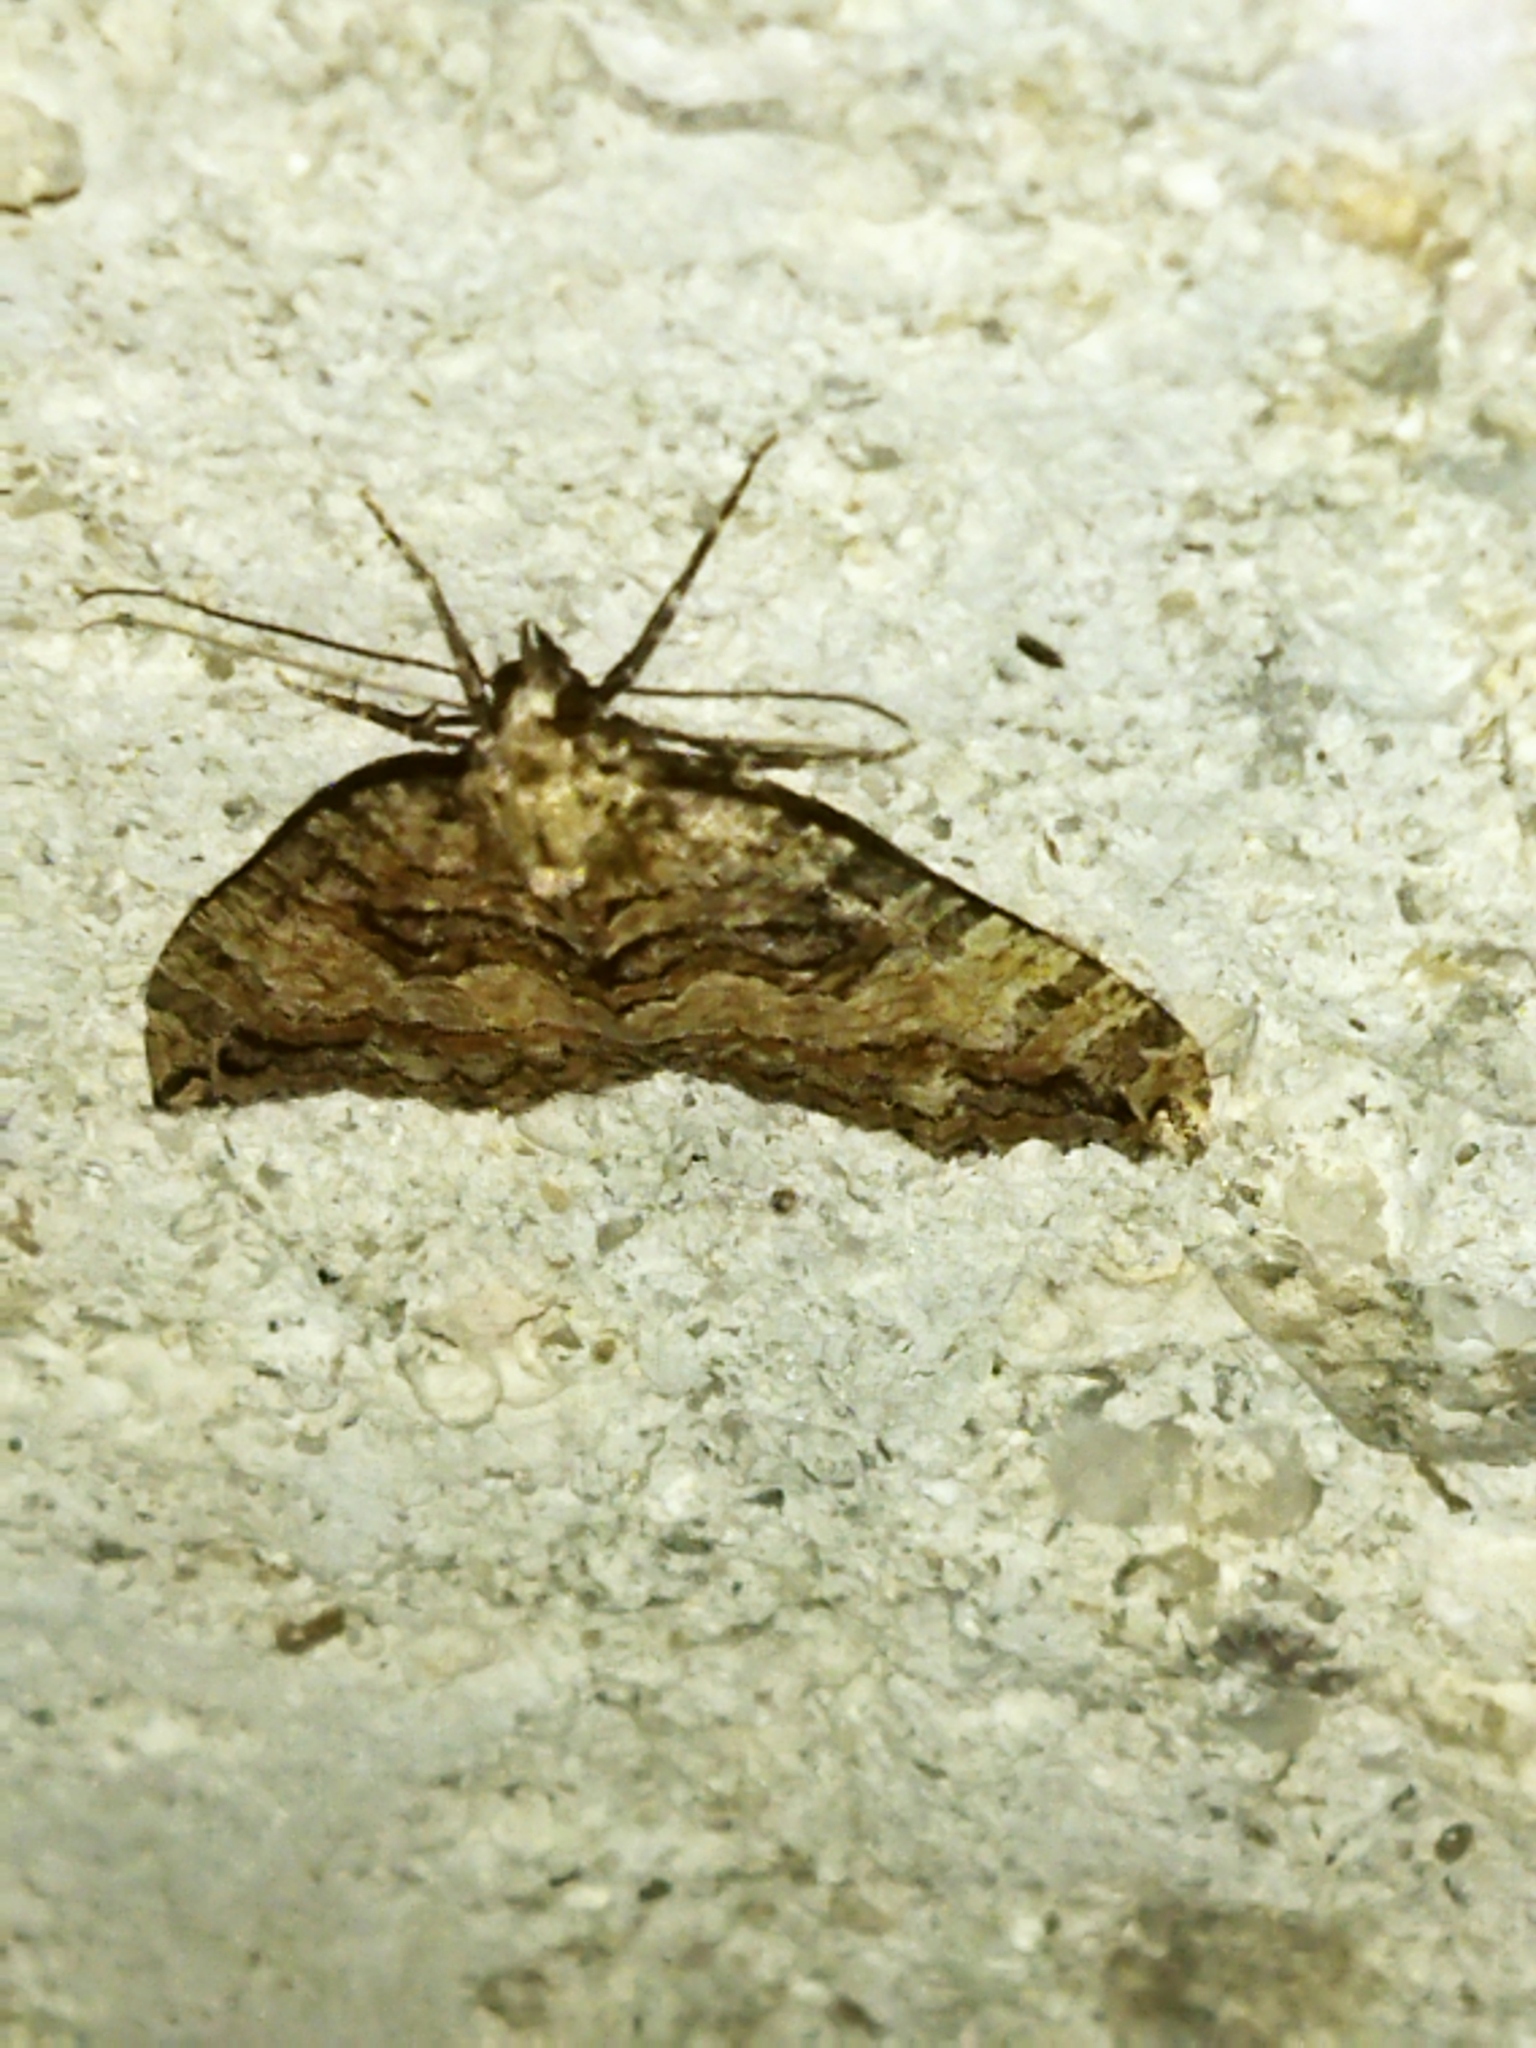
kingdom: Animalia
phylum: Arthropoda
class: Insecta
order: Lepidoptera
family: Geometridae
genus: Hydriomena
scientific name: Hydriomena furcata
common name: July highflyer
